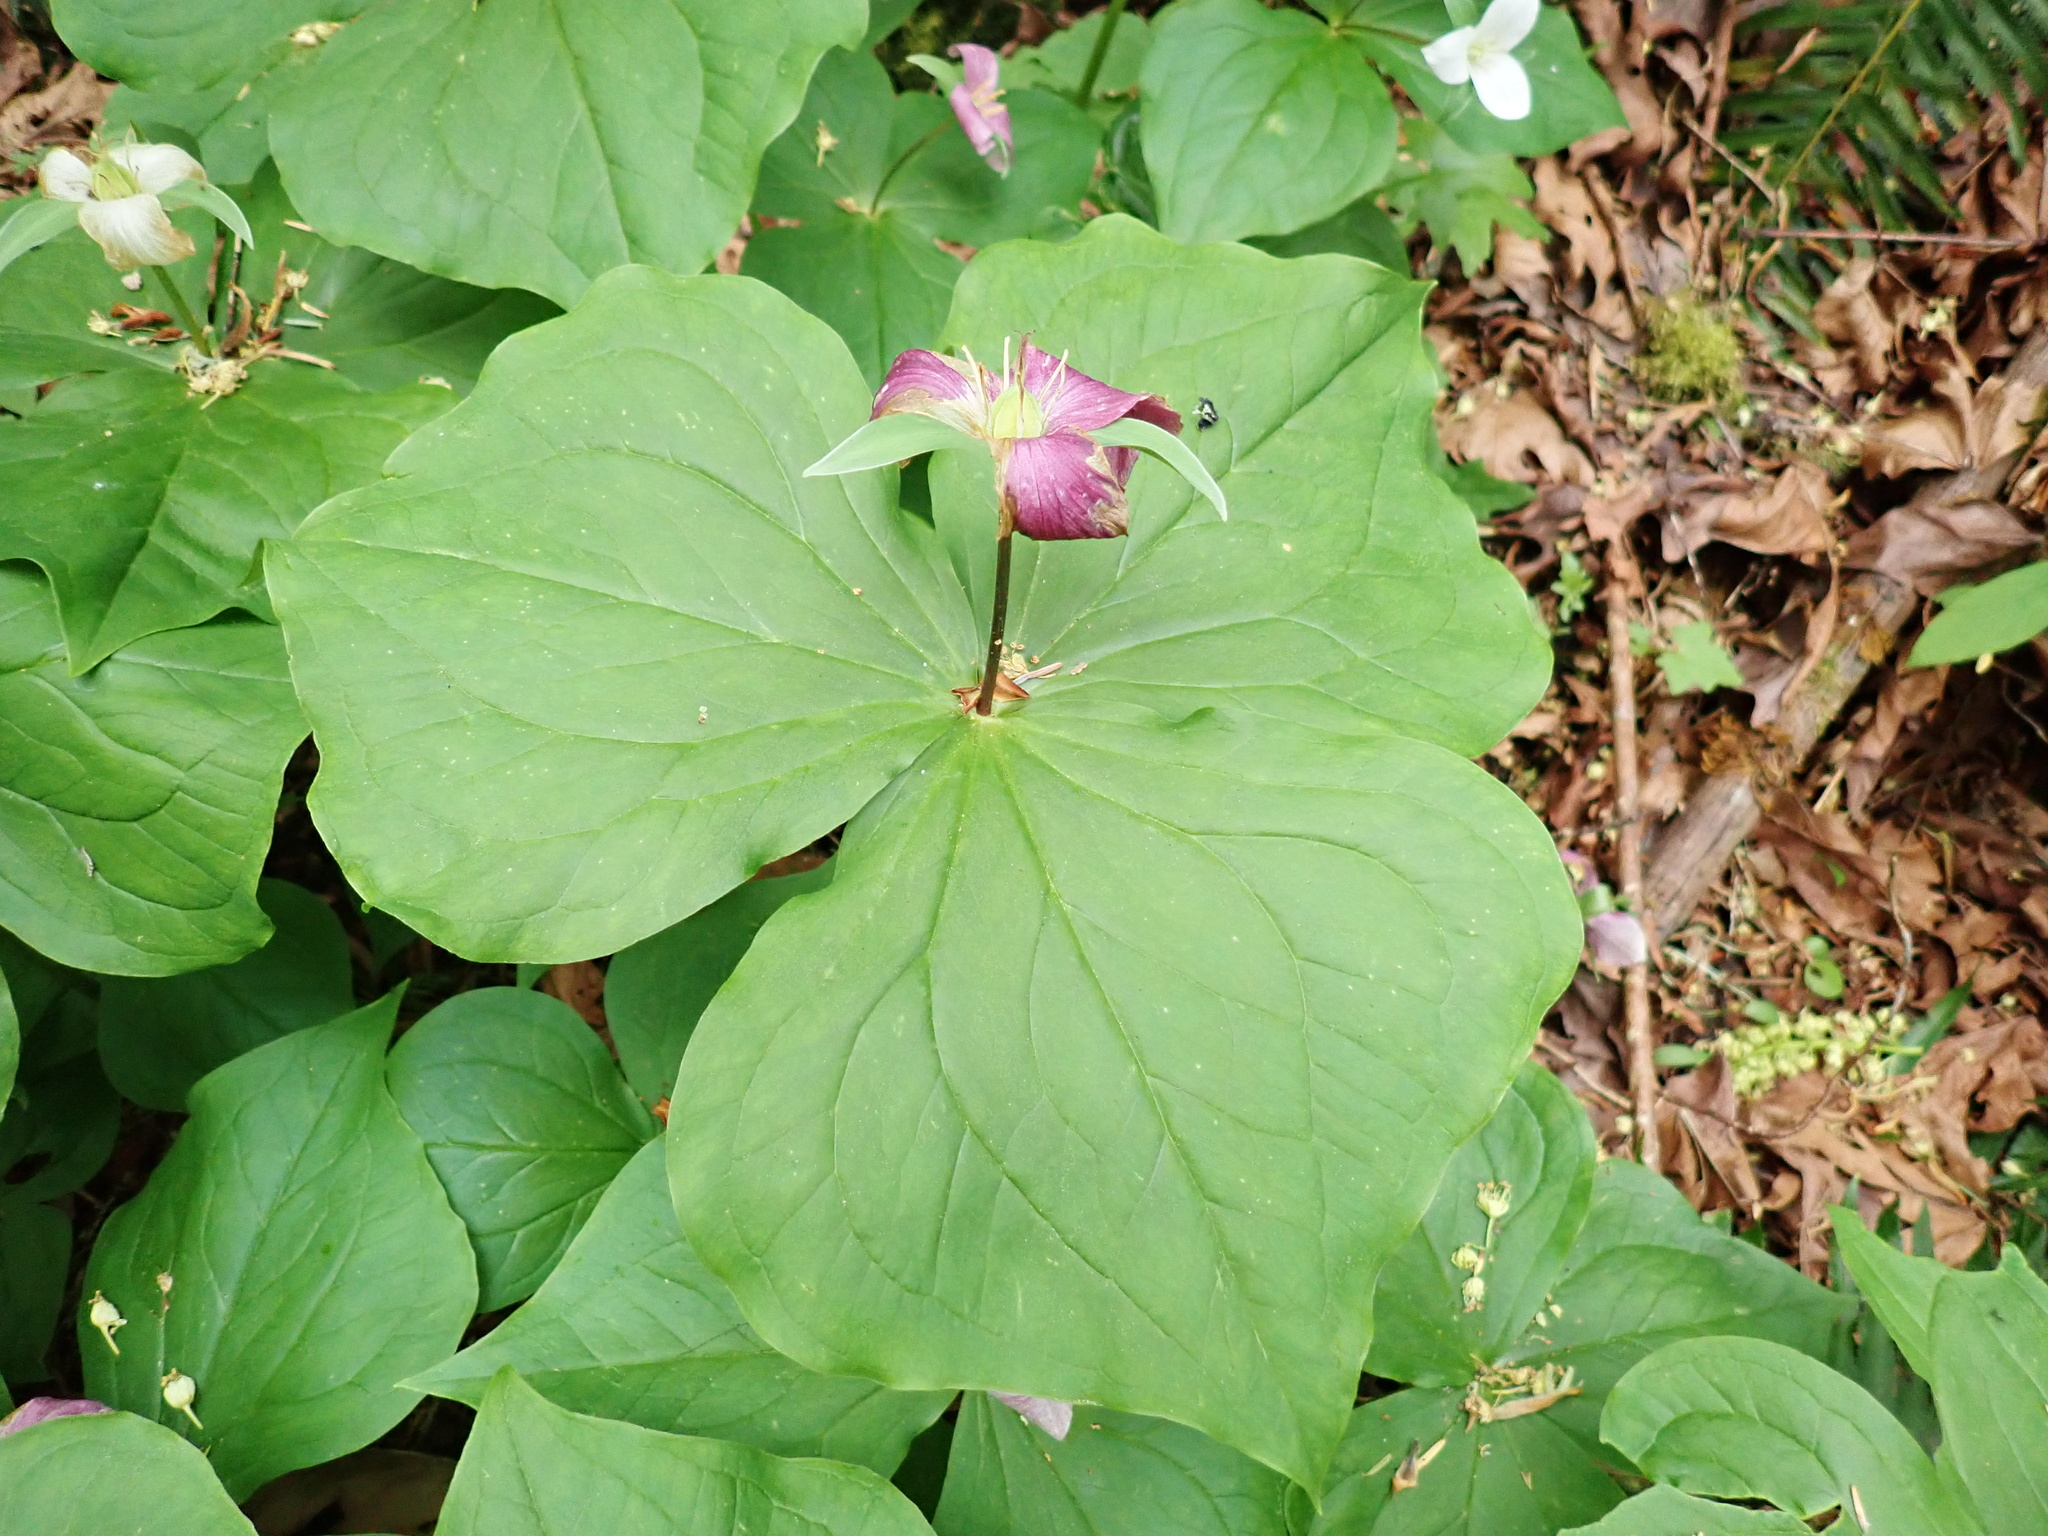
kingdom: Plantae
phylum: Tracheophyta
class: Liliopsida
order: Liliales
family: Melanthiaceae
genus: Trillium
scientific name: Trillium ovatum
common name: Pacific trillium
